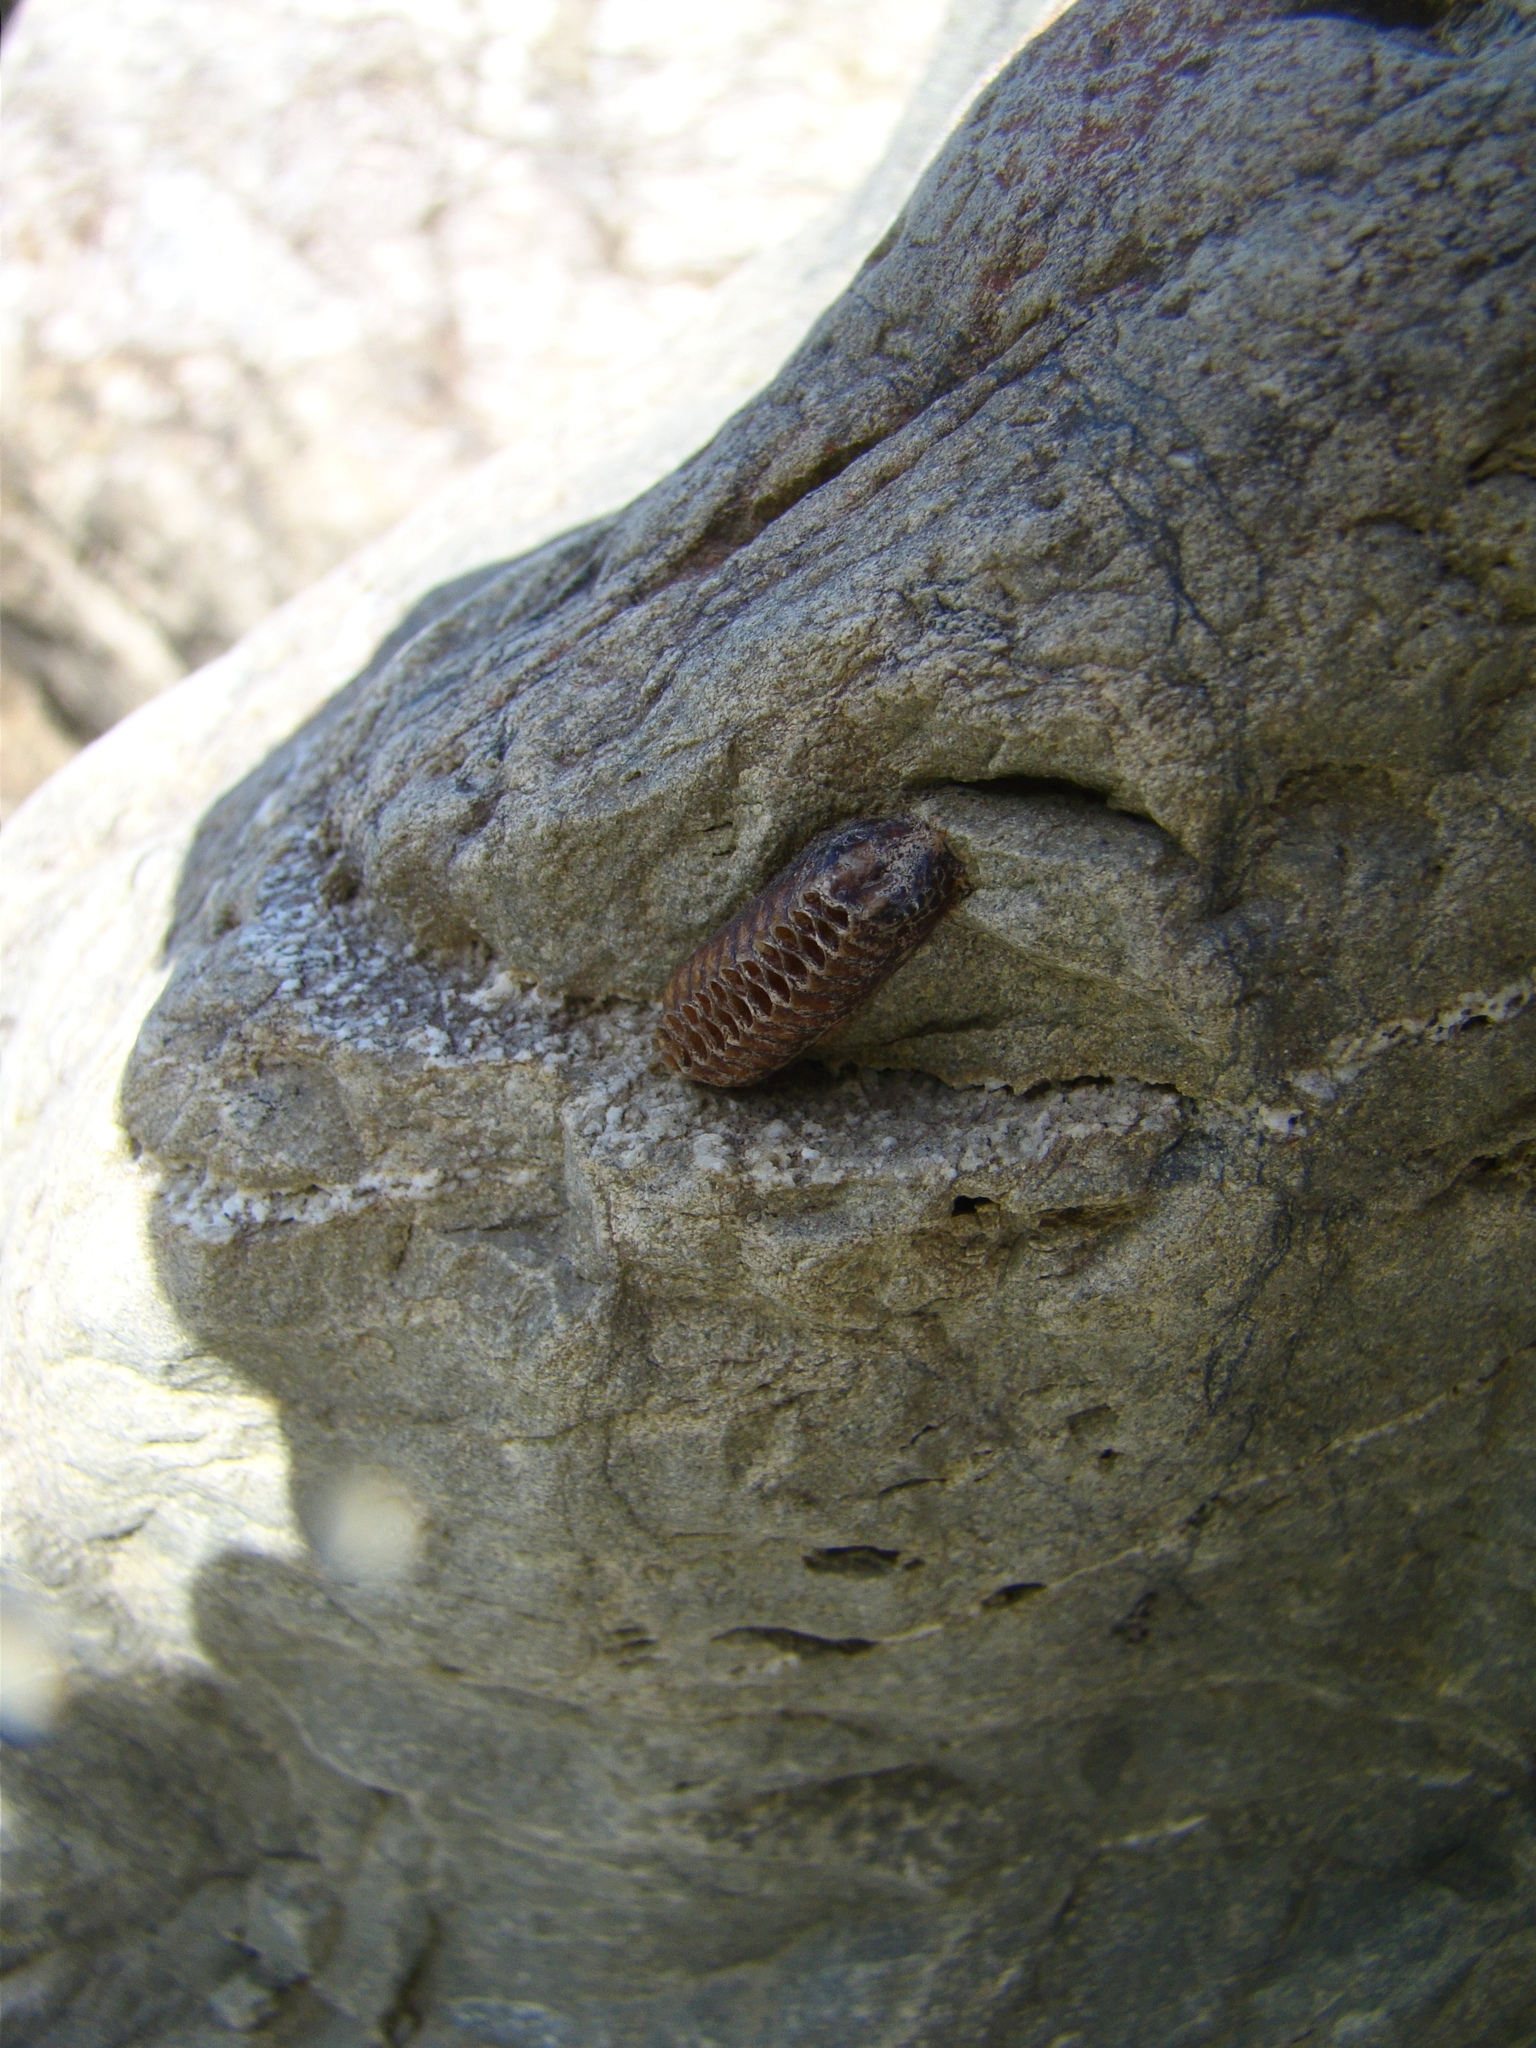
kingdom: Animalia
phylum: Arthropoda
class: Insecta
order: Mantodea
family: Mantidae
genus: Orthodera
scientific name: Orthodera novaezealandiae
